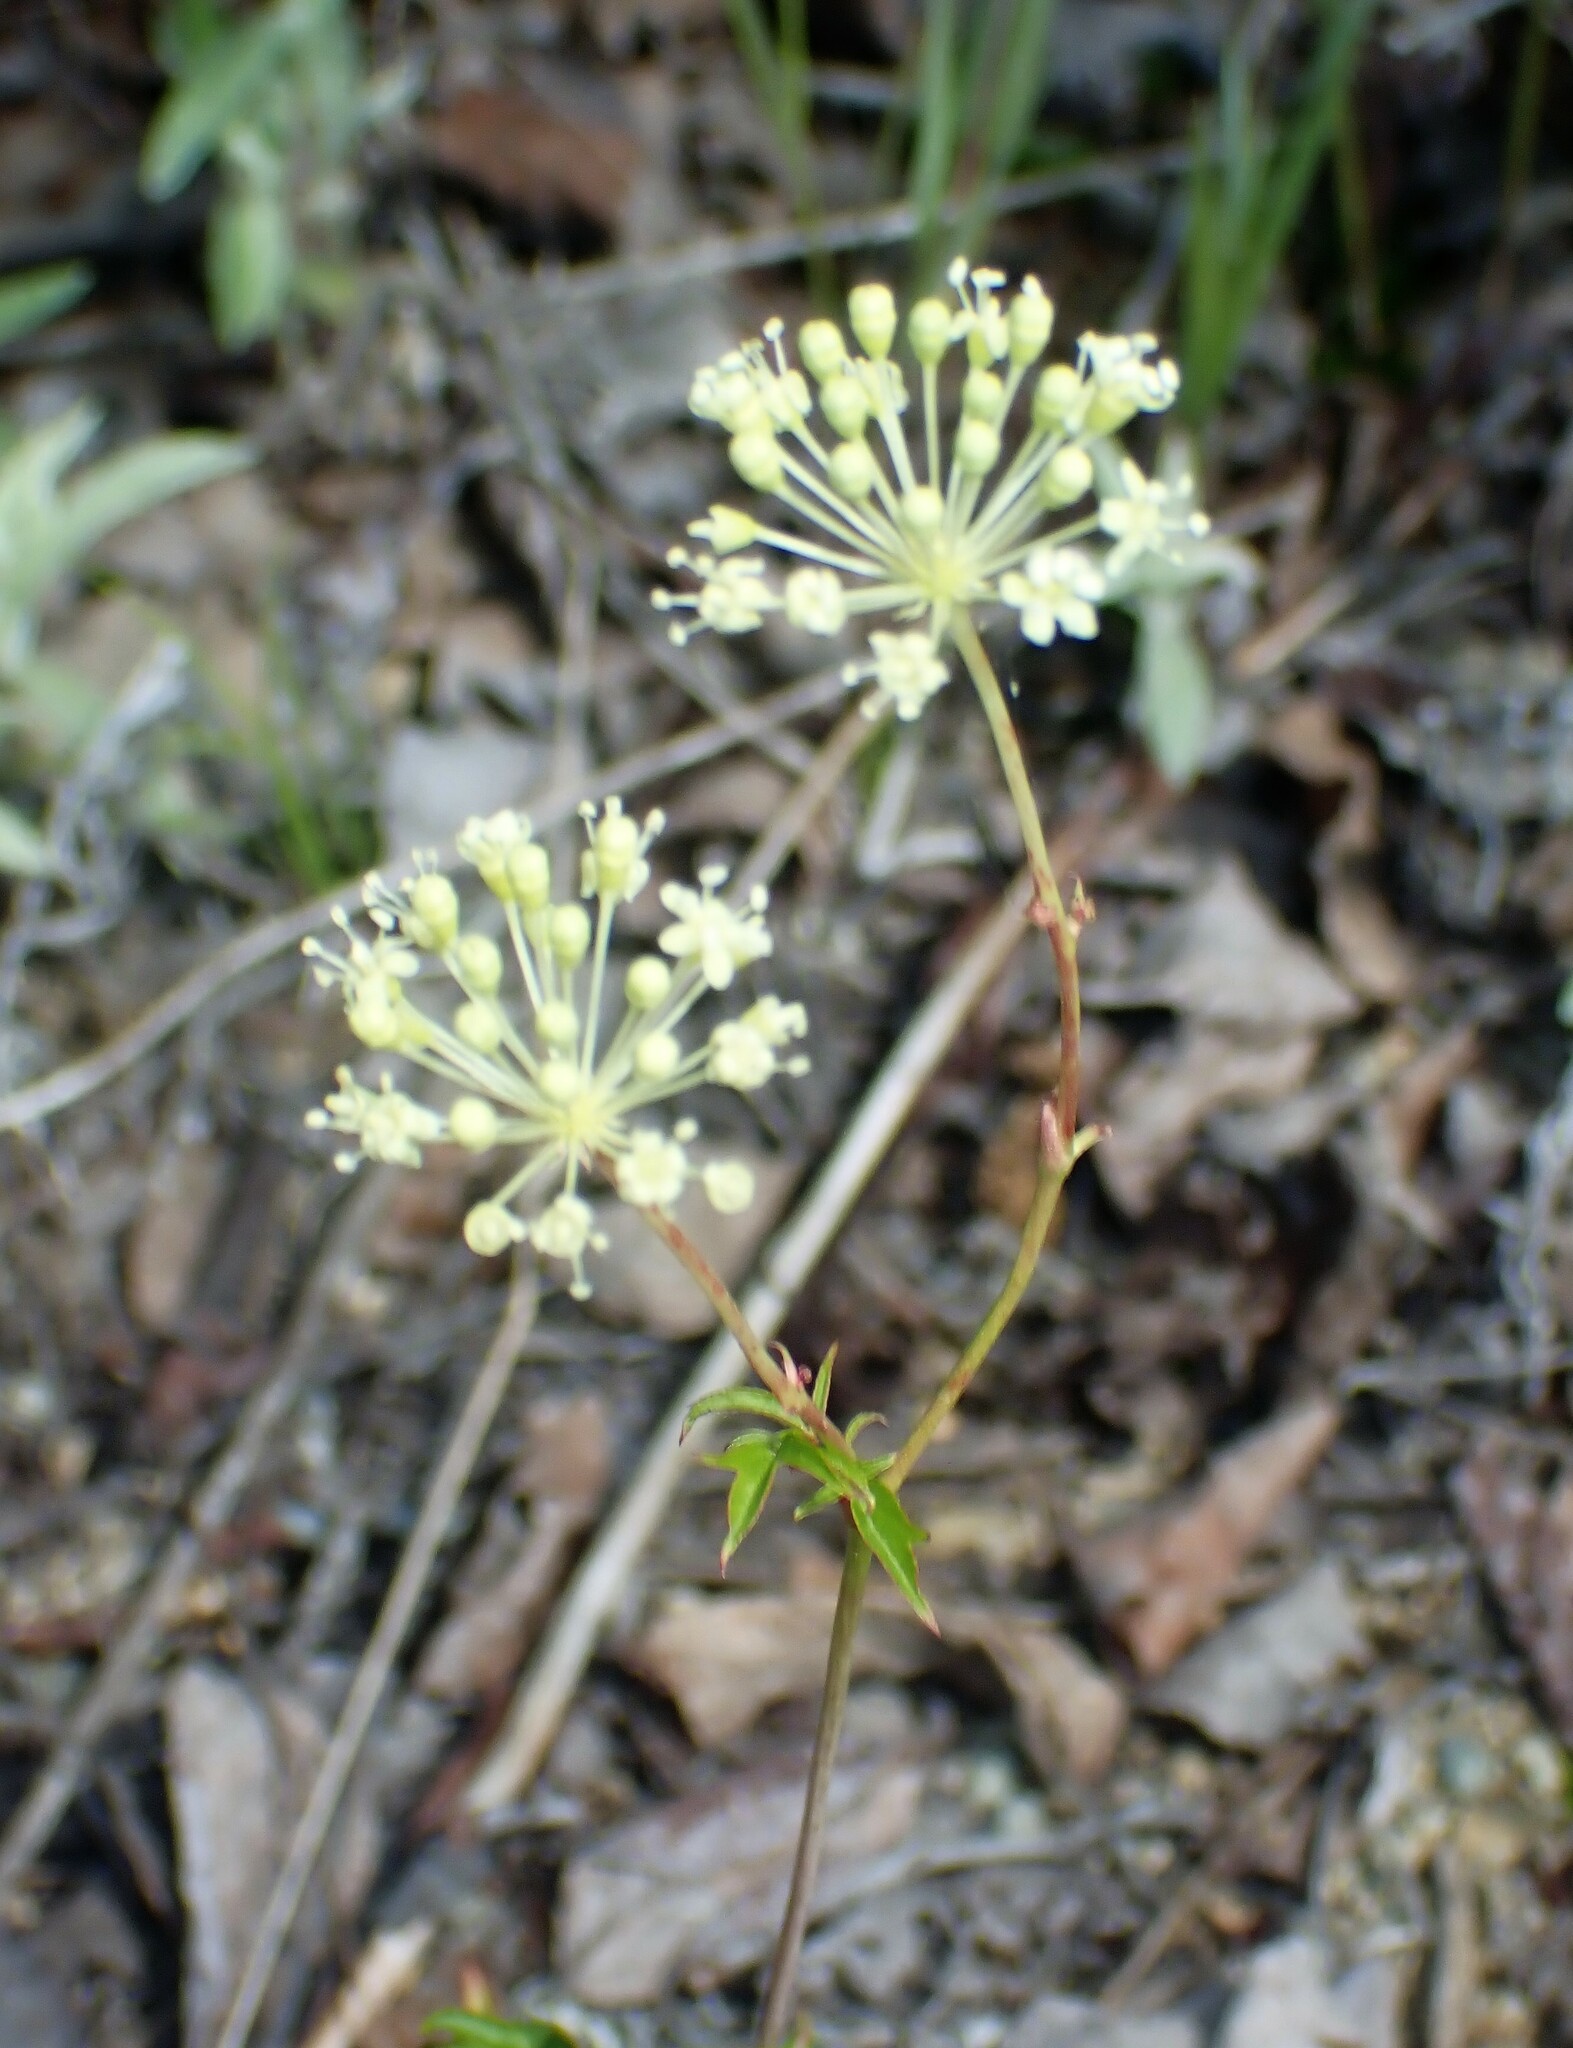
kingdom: Plantae
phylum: Tracheophyta
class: Magnoliopsida
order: Apiales
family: Araliaceae
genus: Aralia
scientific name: Aralia hispida
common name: Bristly sarsaparilla
